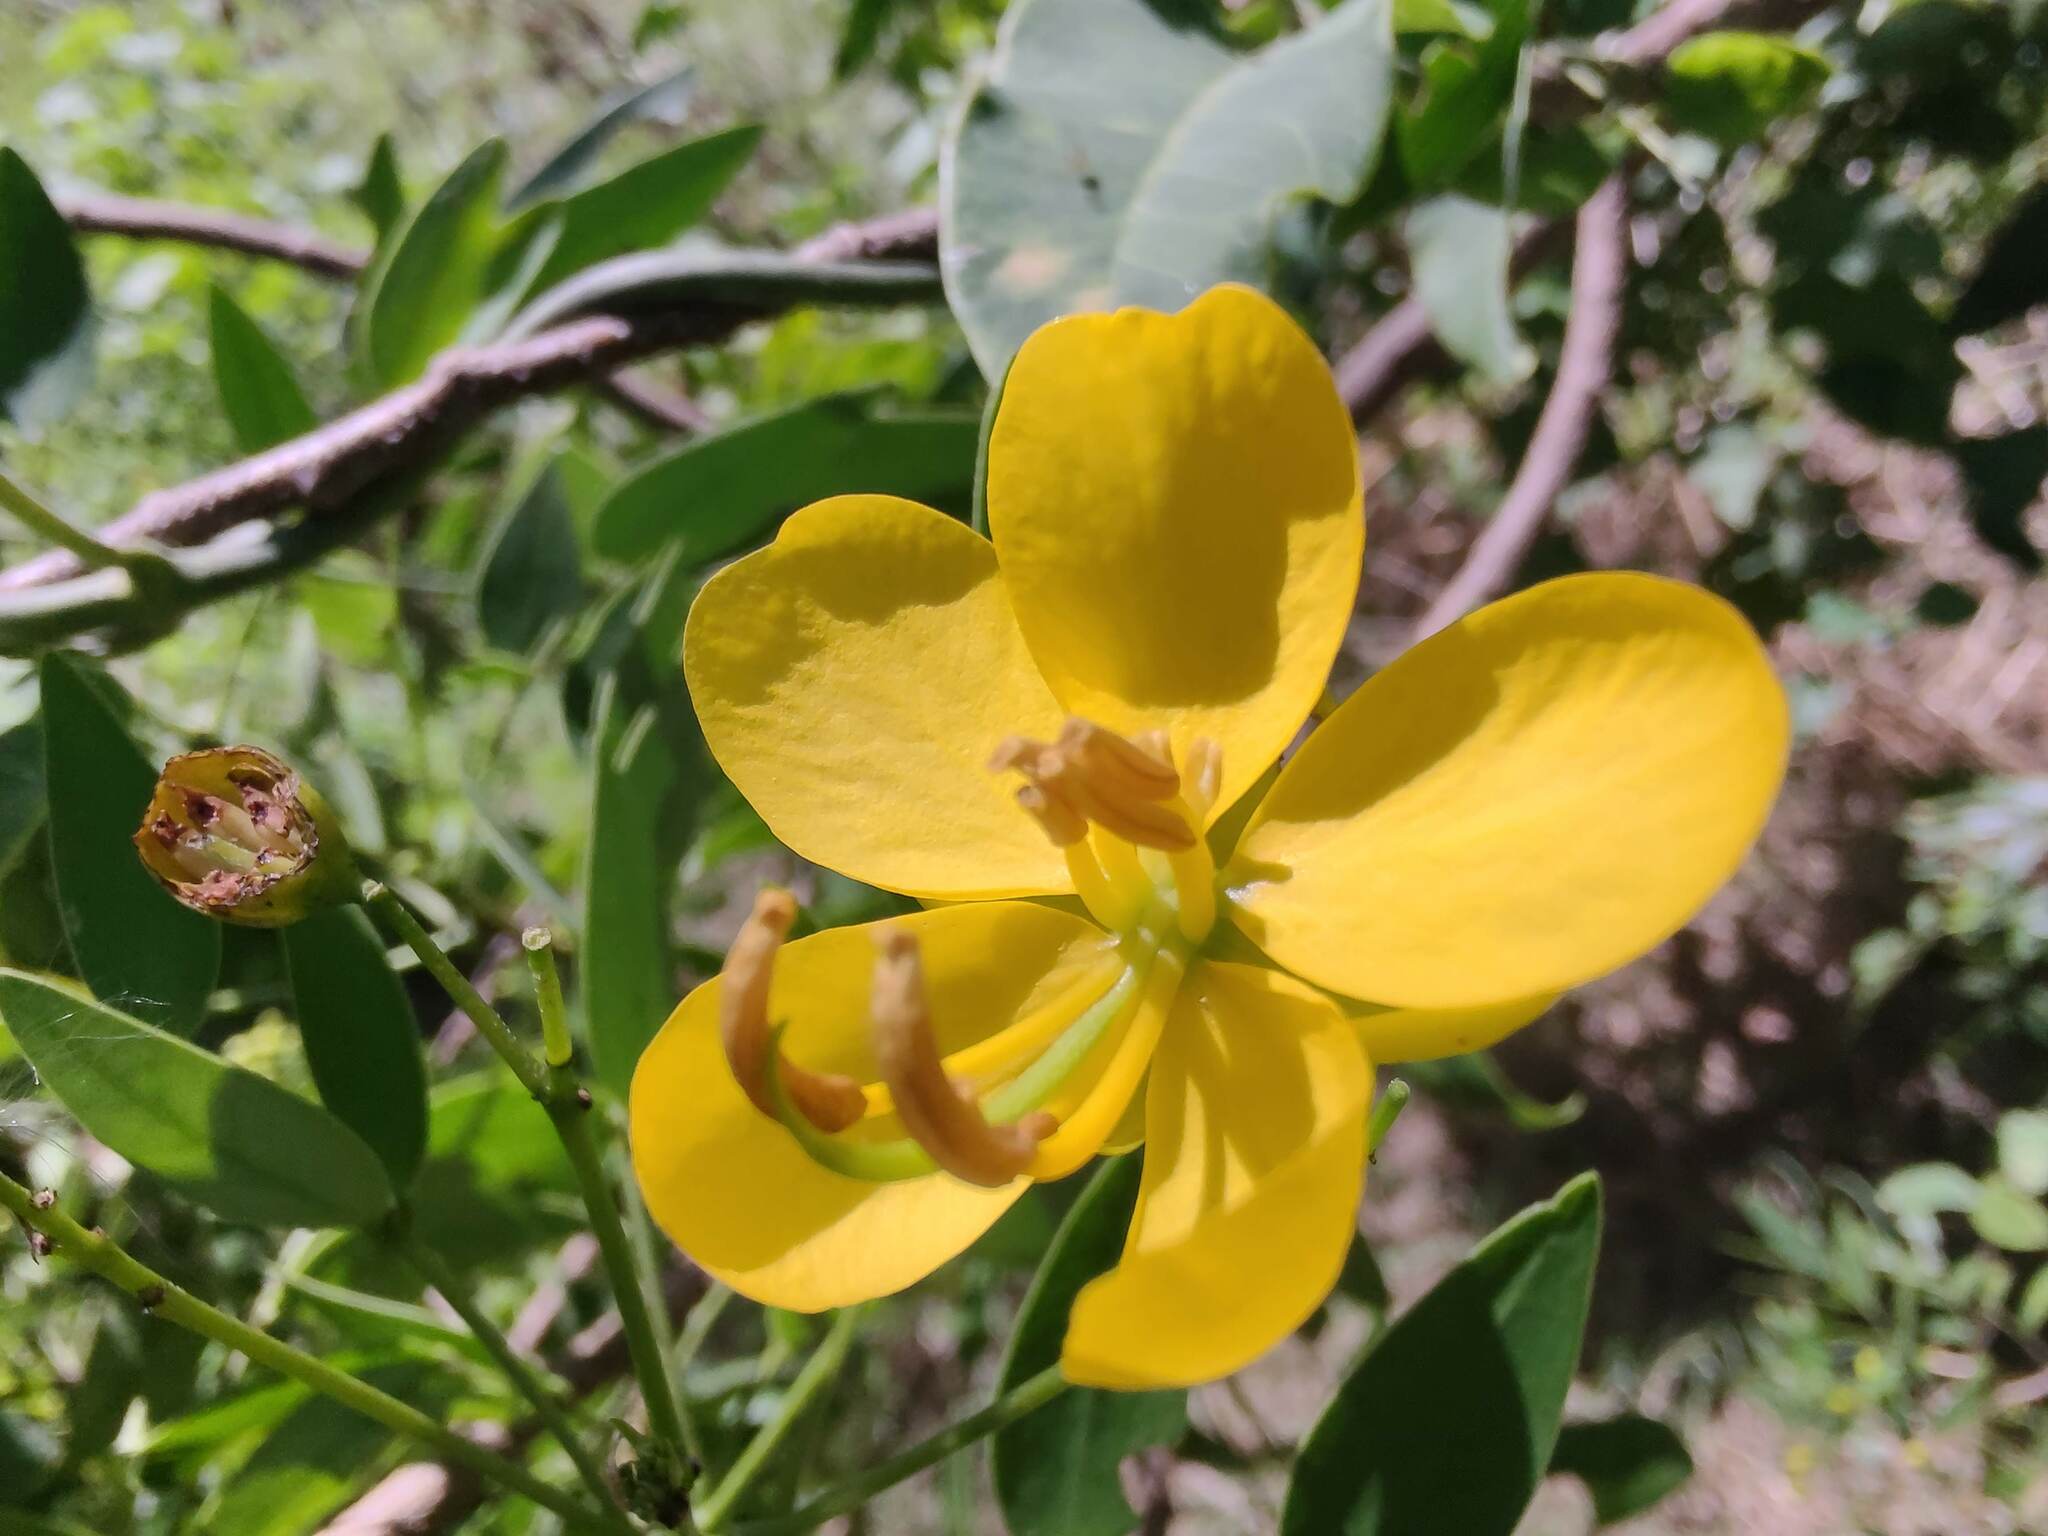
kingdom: Plantae
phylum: Tracheophyta
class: Magnoliopsida
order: Fabales
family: Fabaceae
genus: Senna
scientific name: Senna corymbosa
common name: Argentine senna
